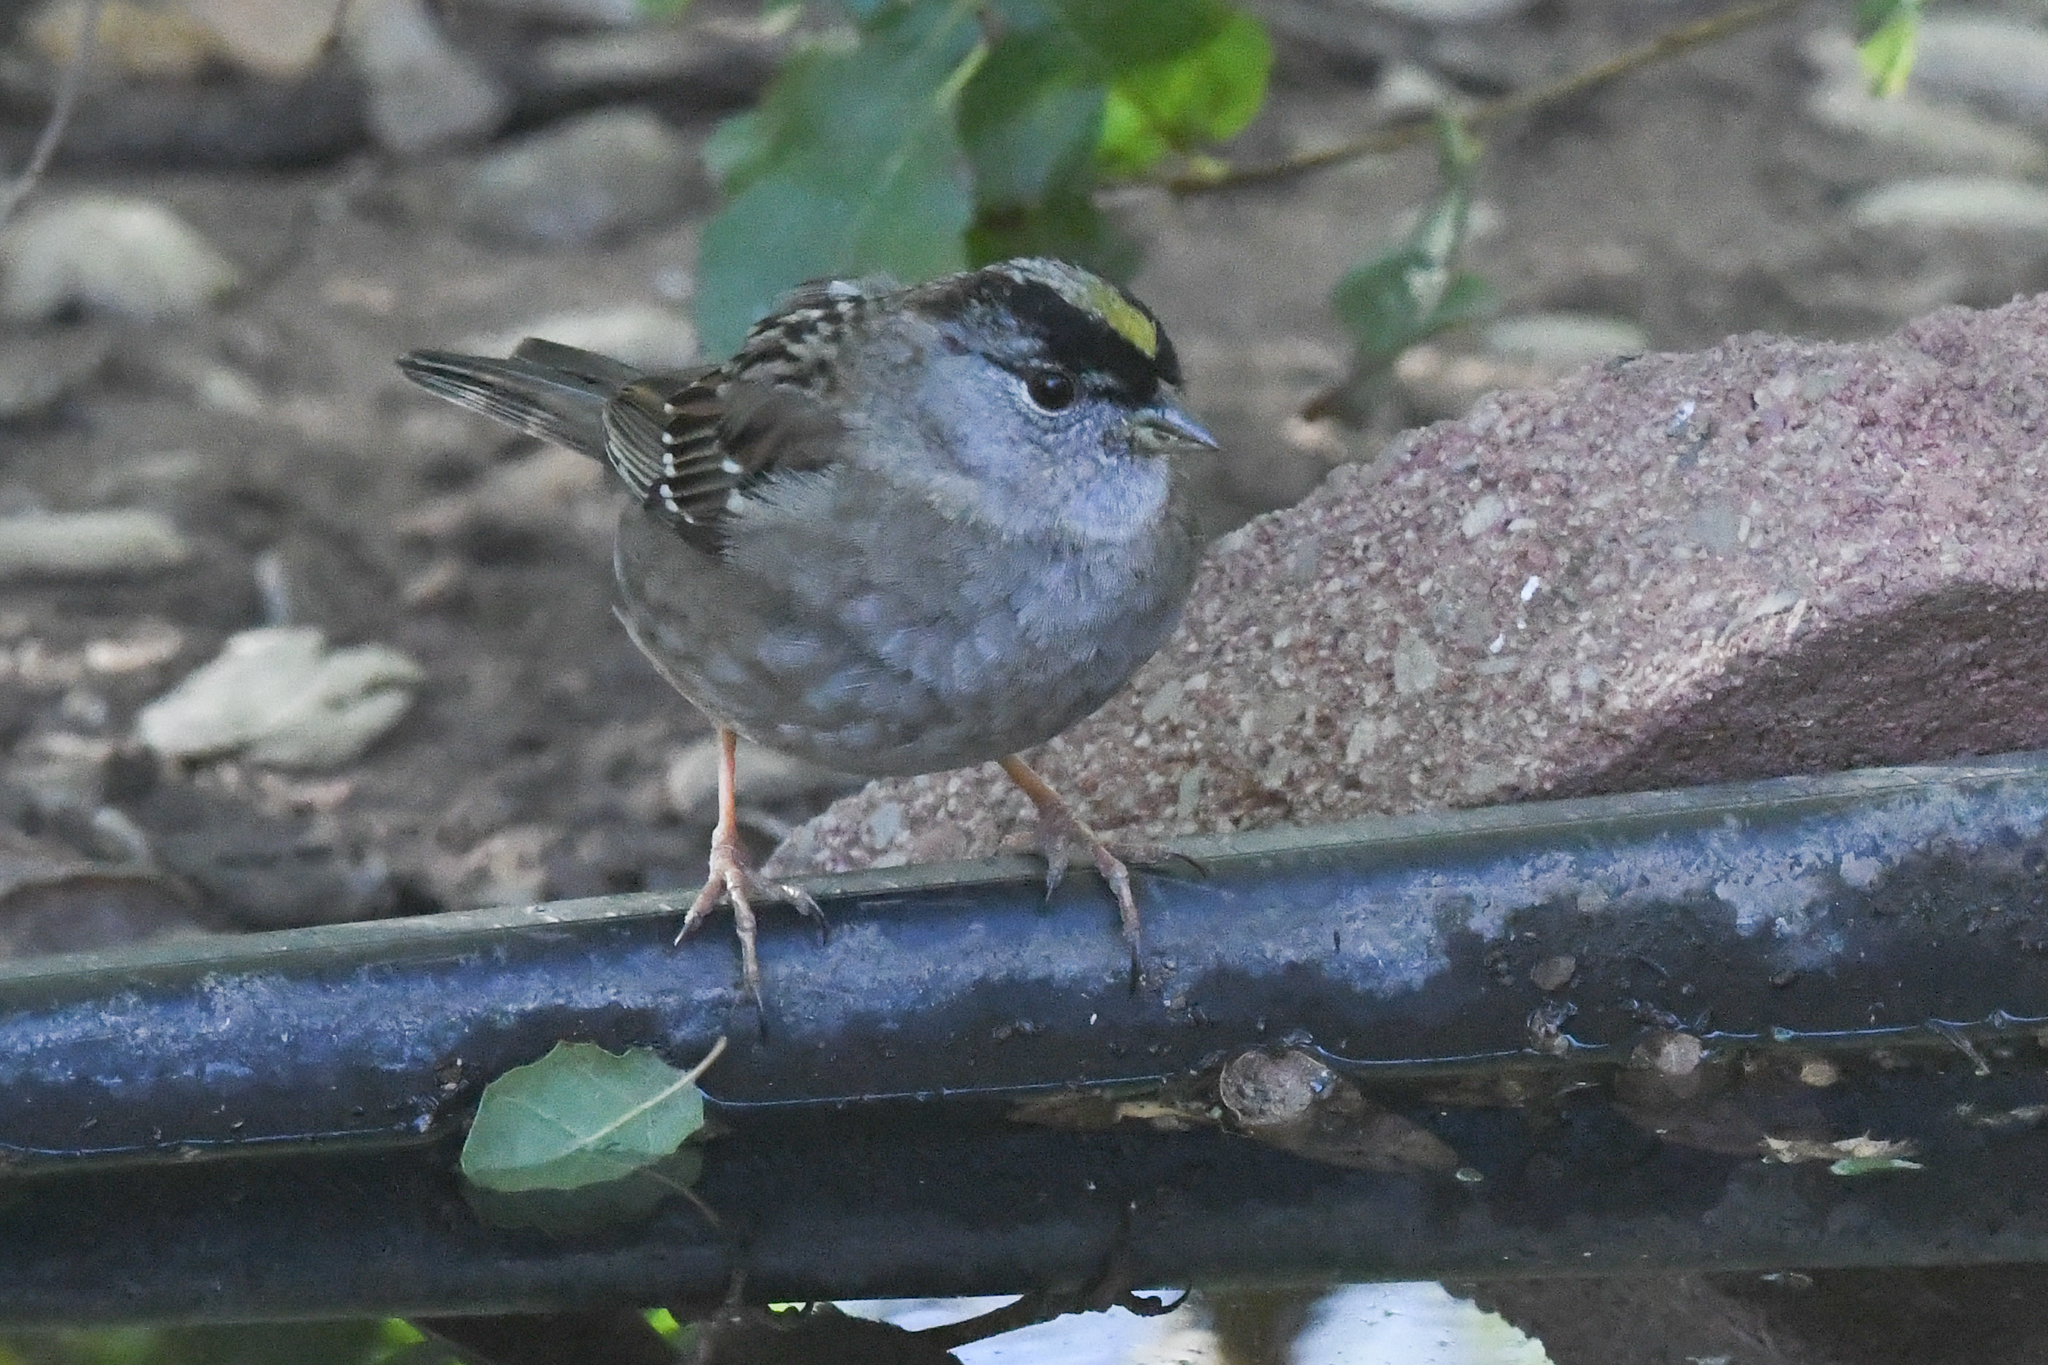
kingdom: Animalia
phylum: Chordata
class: Aves
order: Passeriformes
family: Passerellidae
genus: Zonotrichia
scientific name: Zonotrichia atricapilla
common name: Golden-crowned sparrow
